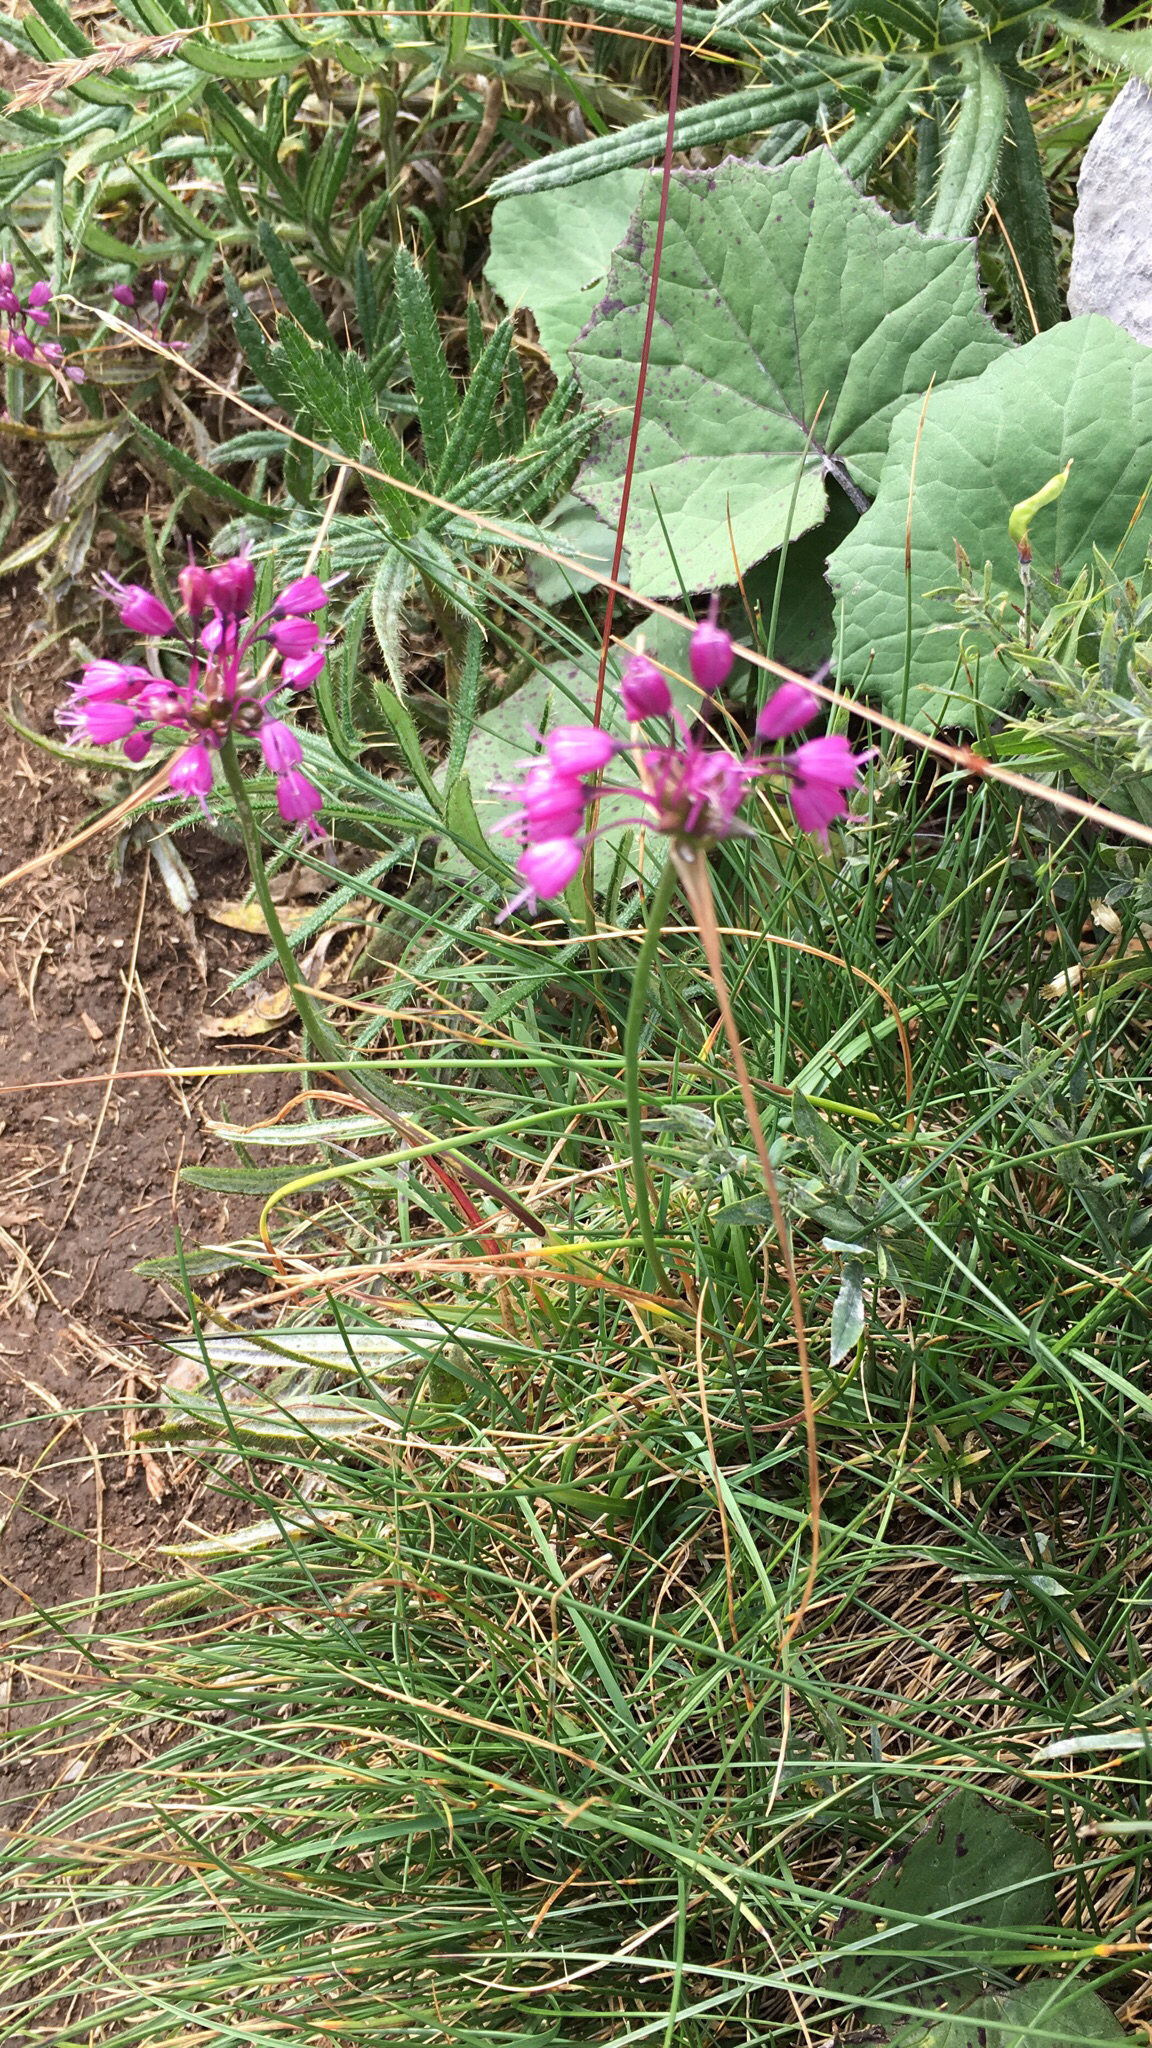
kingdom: Plantae
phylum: Tracheophyta
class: Liliopsida
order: Asparagales
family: Amaryllidaceae
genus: Allium
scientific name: Allium carinatum
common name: Keeled garlic
